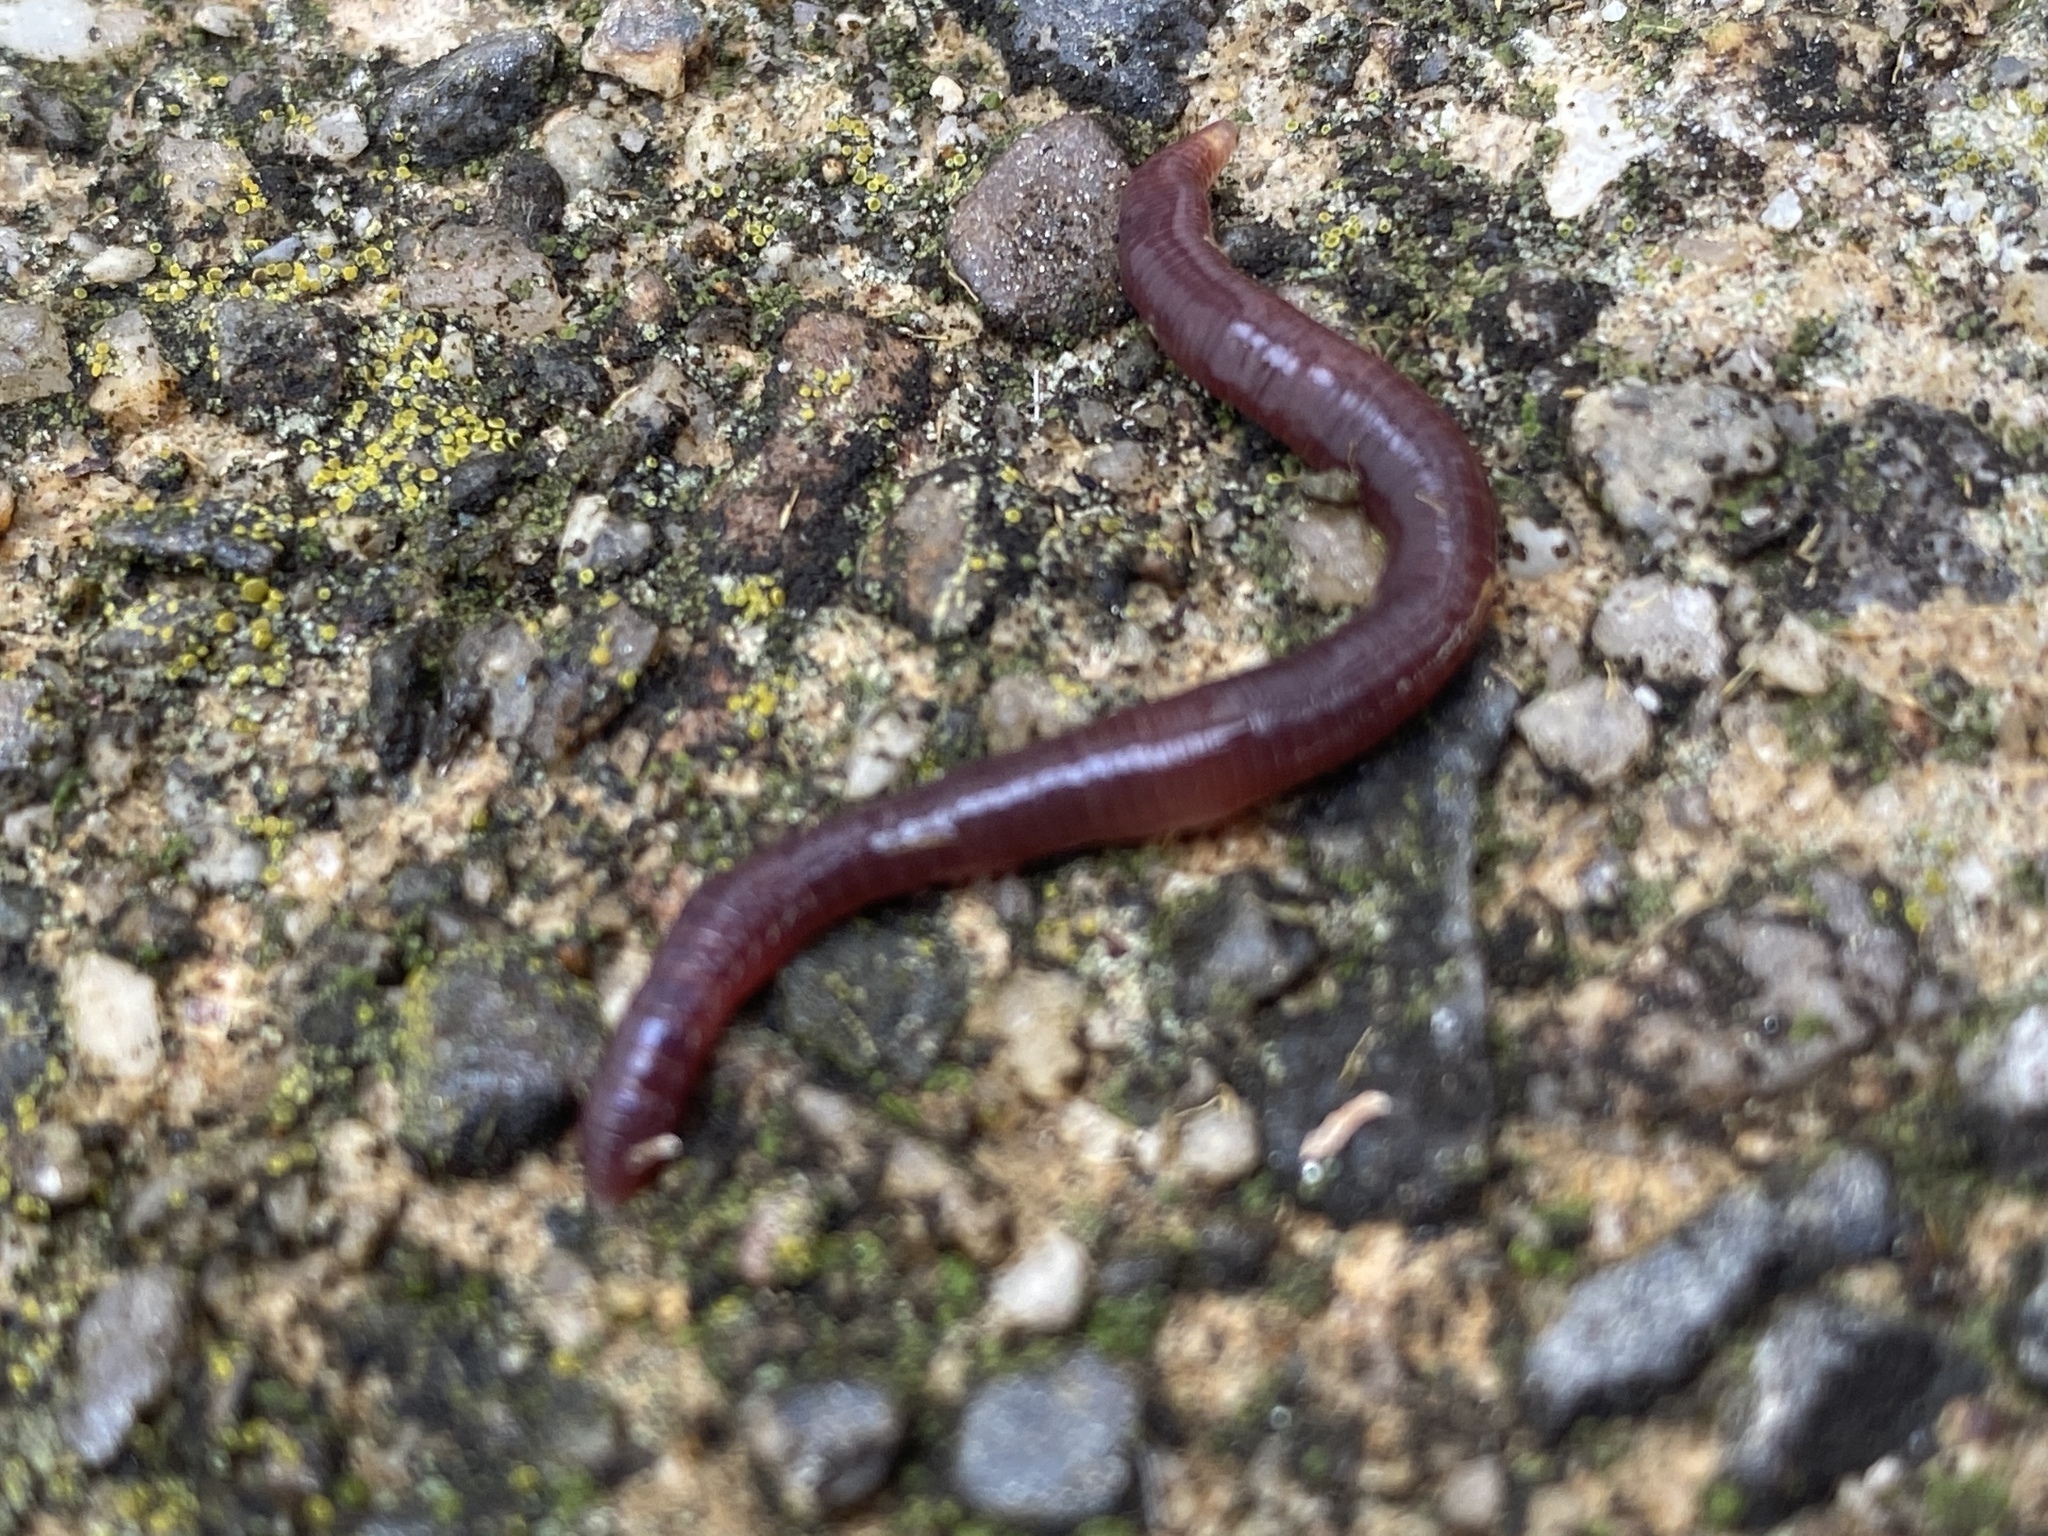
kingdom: Animalia
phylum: Annelida
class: Clitellata
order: Crassiclitellata
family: Lumbricidae
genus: Lumbricus
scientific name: Lumbricus terrestris
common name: Common earthworm
